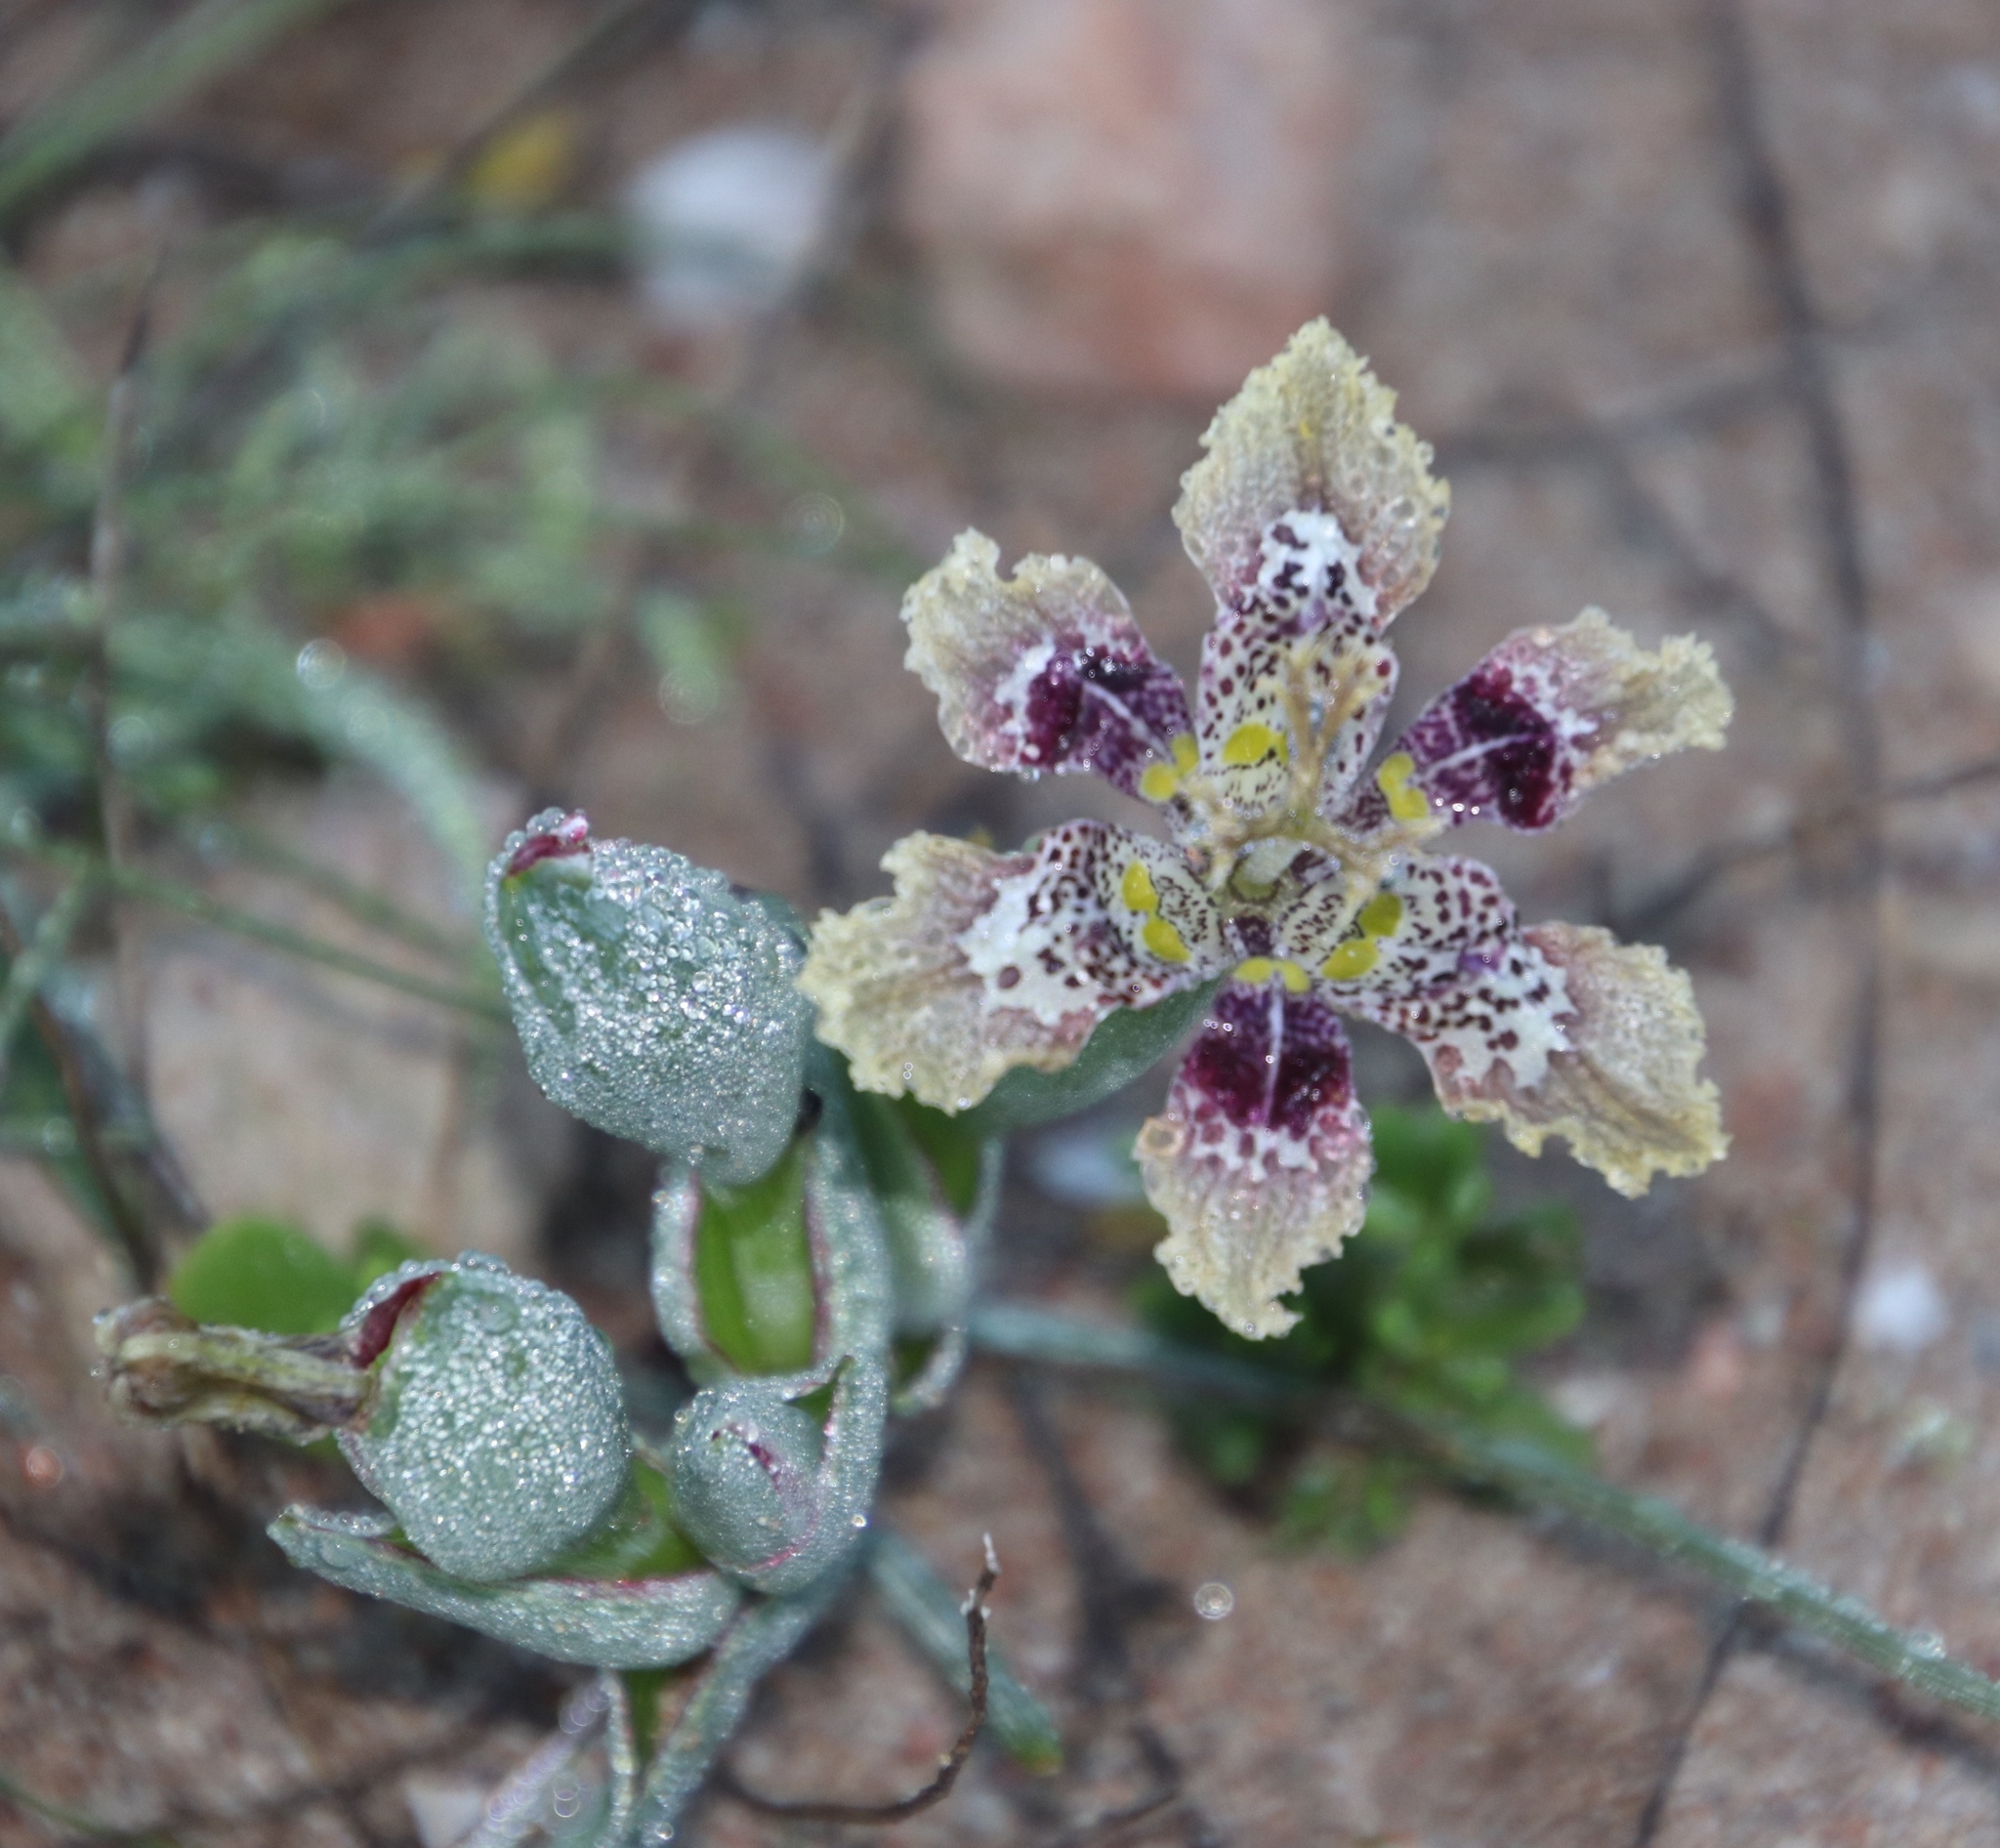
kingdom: Plantae
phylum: Tracheophyta
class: Liliopsida
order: Asparagales
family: Iridaceae
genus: Ferraria
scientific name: Ferraria densepunctulata
